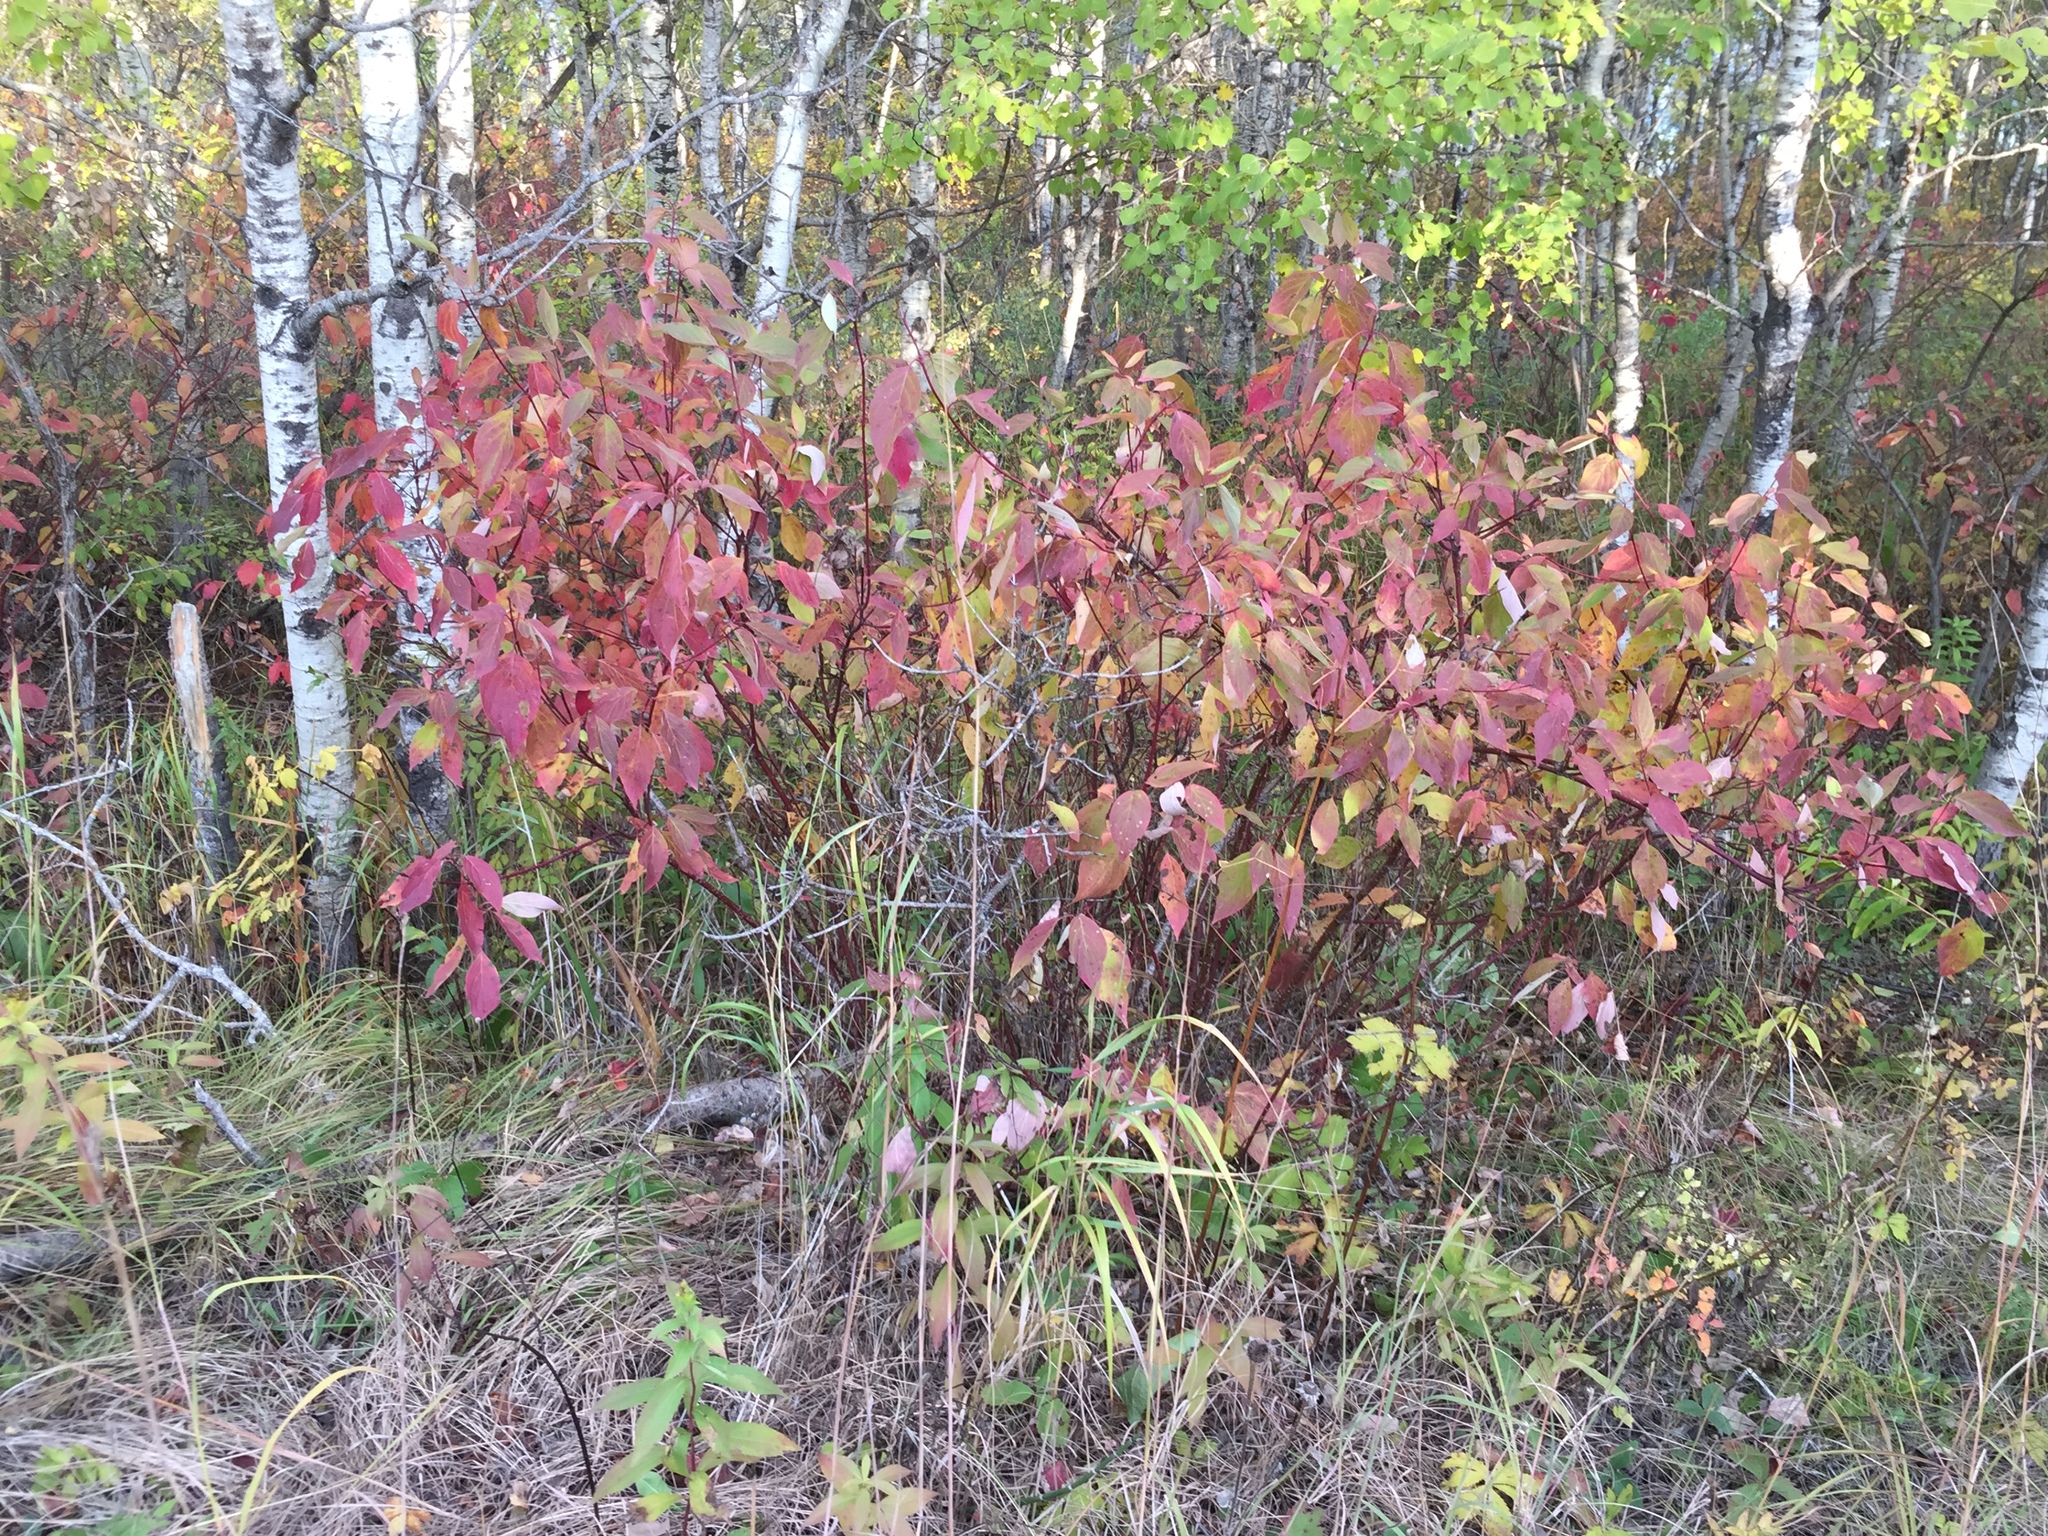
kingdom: Plantae
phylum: Tracheophyta
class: Magnoliopsida
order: Cornales
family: Cornaceae
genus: Cornus
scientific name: Cornus sericea
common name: Red-osier dogwood
